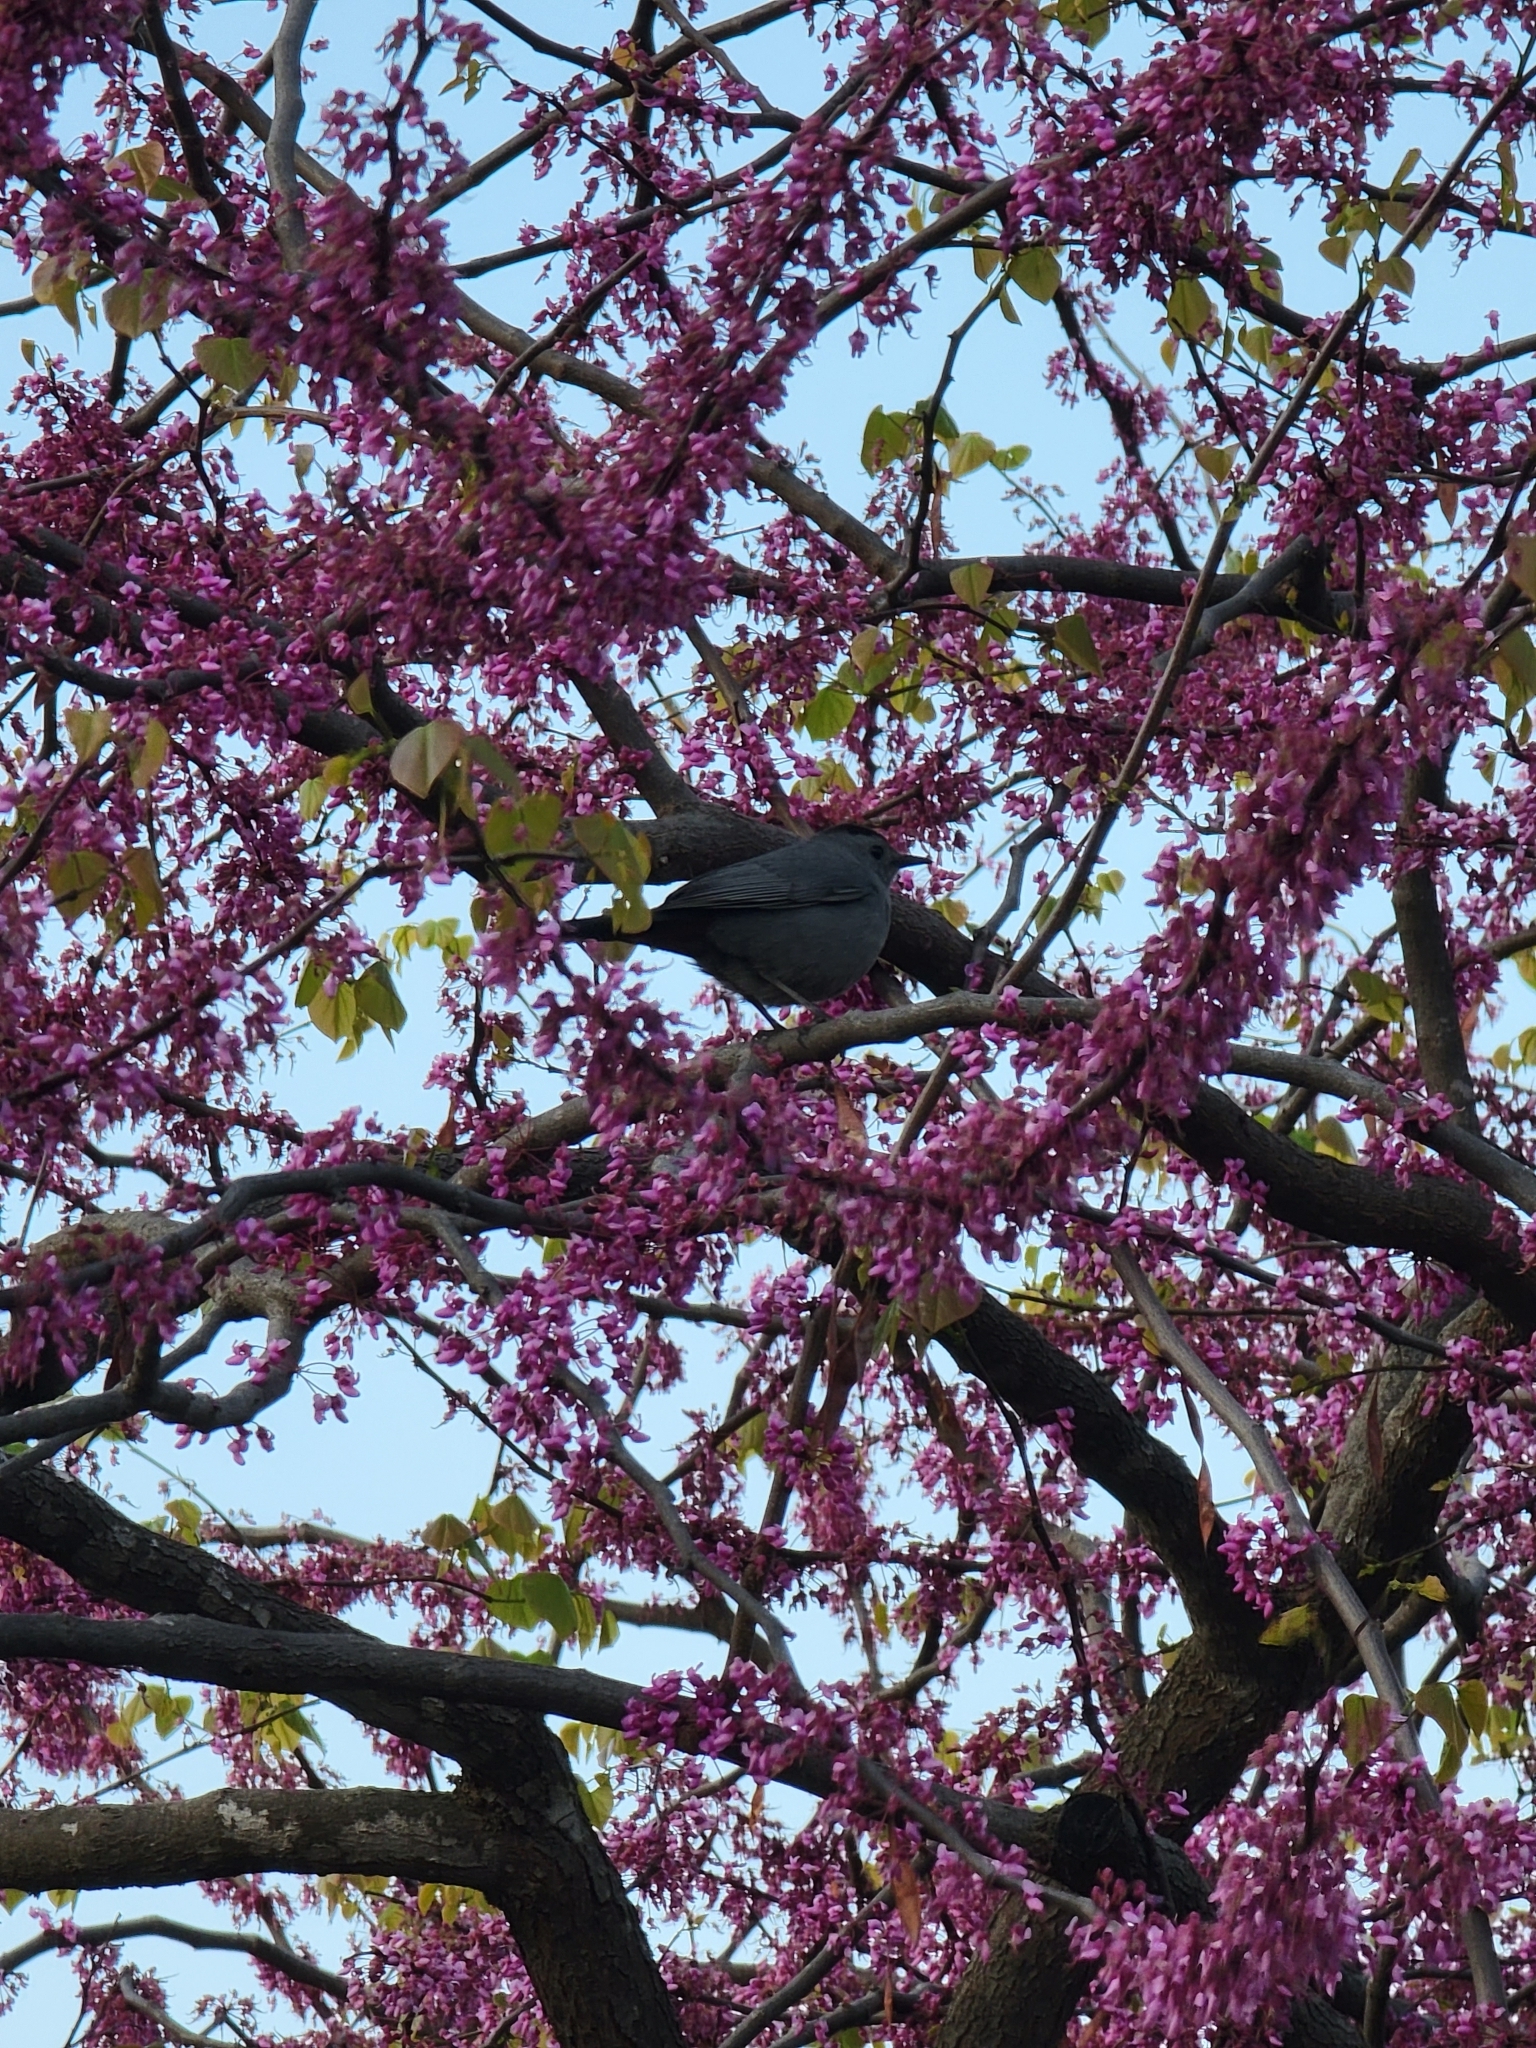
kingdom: Animalia
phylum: Chordata
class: Aves
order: Passeriformes
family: Mimidae
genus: Dumetella
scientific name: Dumetella carolinensis
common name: Gray catbird
